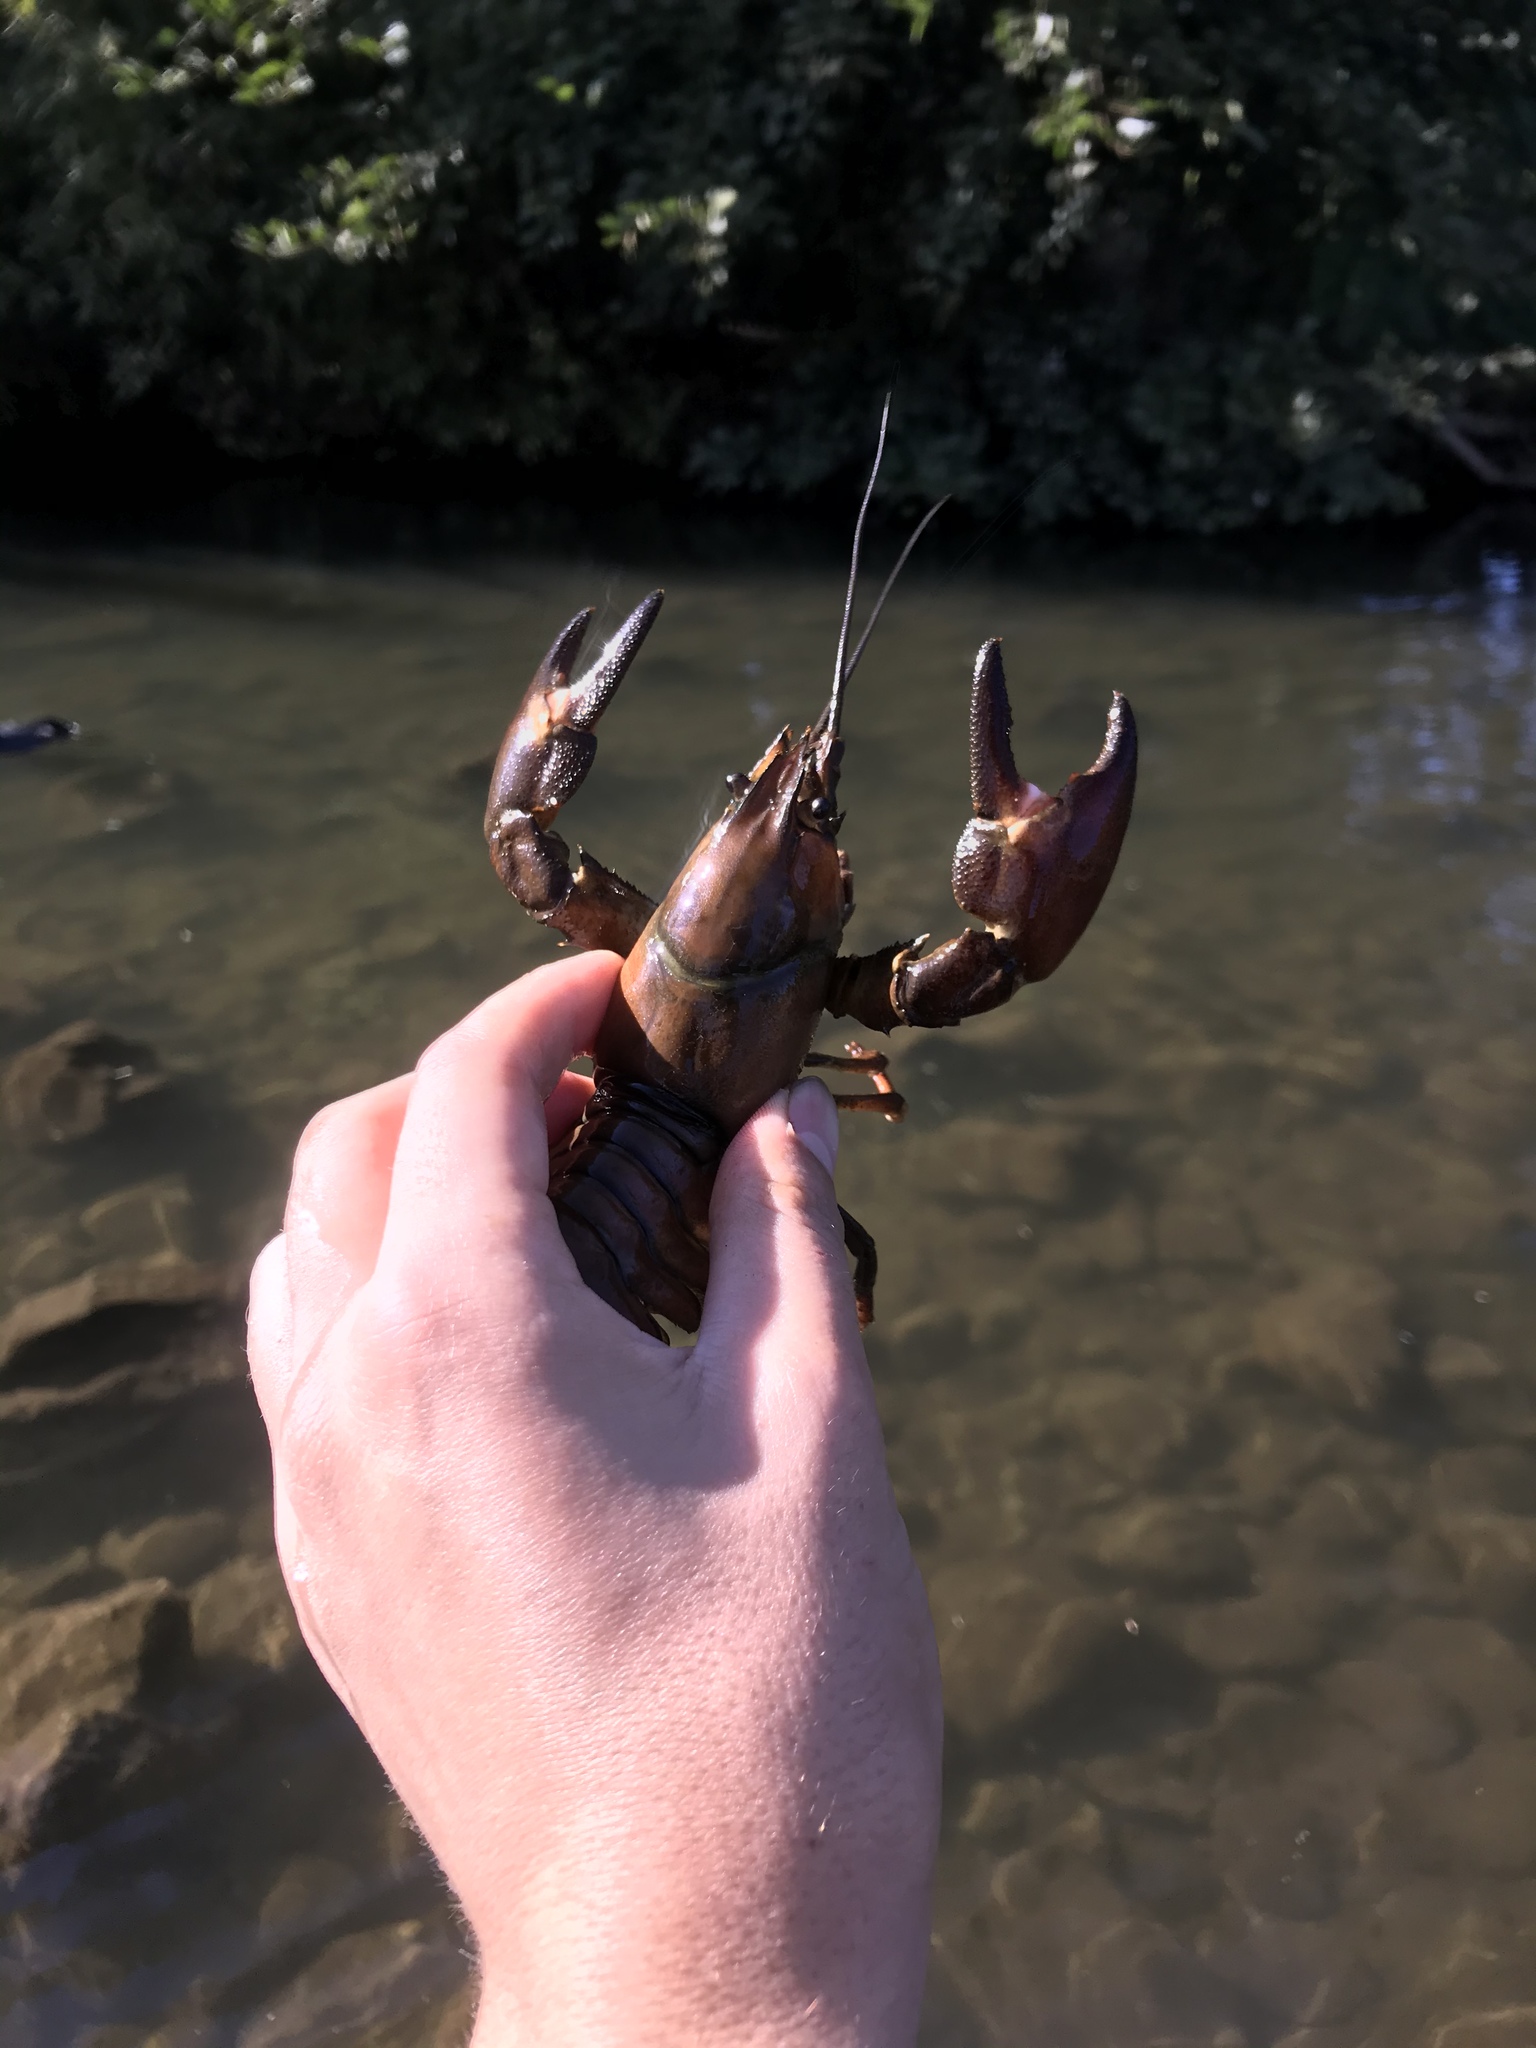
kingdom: Animalia
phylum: Arthropoda
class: Malacostraca
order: Decapoda
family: Astacidae
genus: Pacifastacus
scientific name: Pacifastacus leniusculus
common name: Signal crayfish
